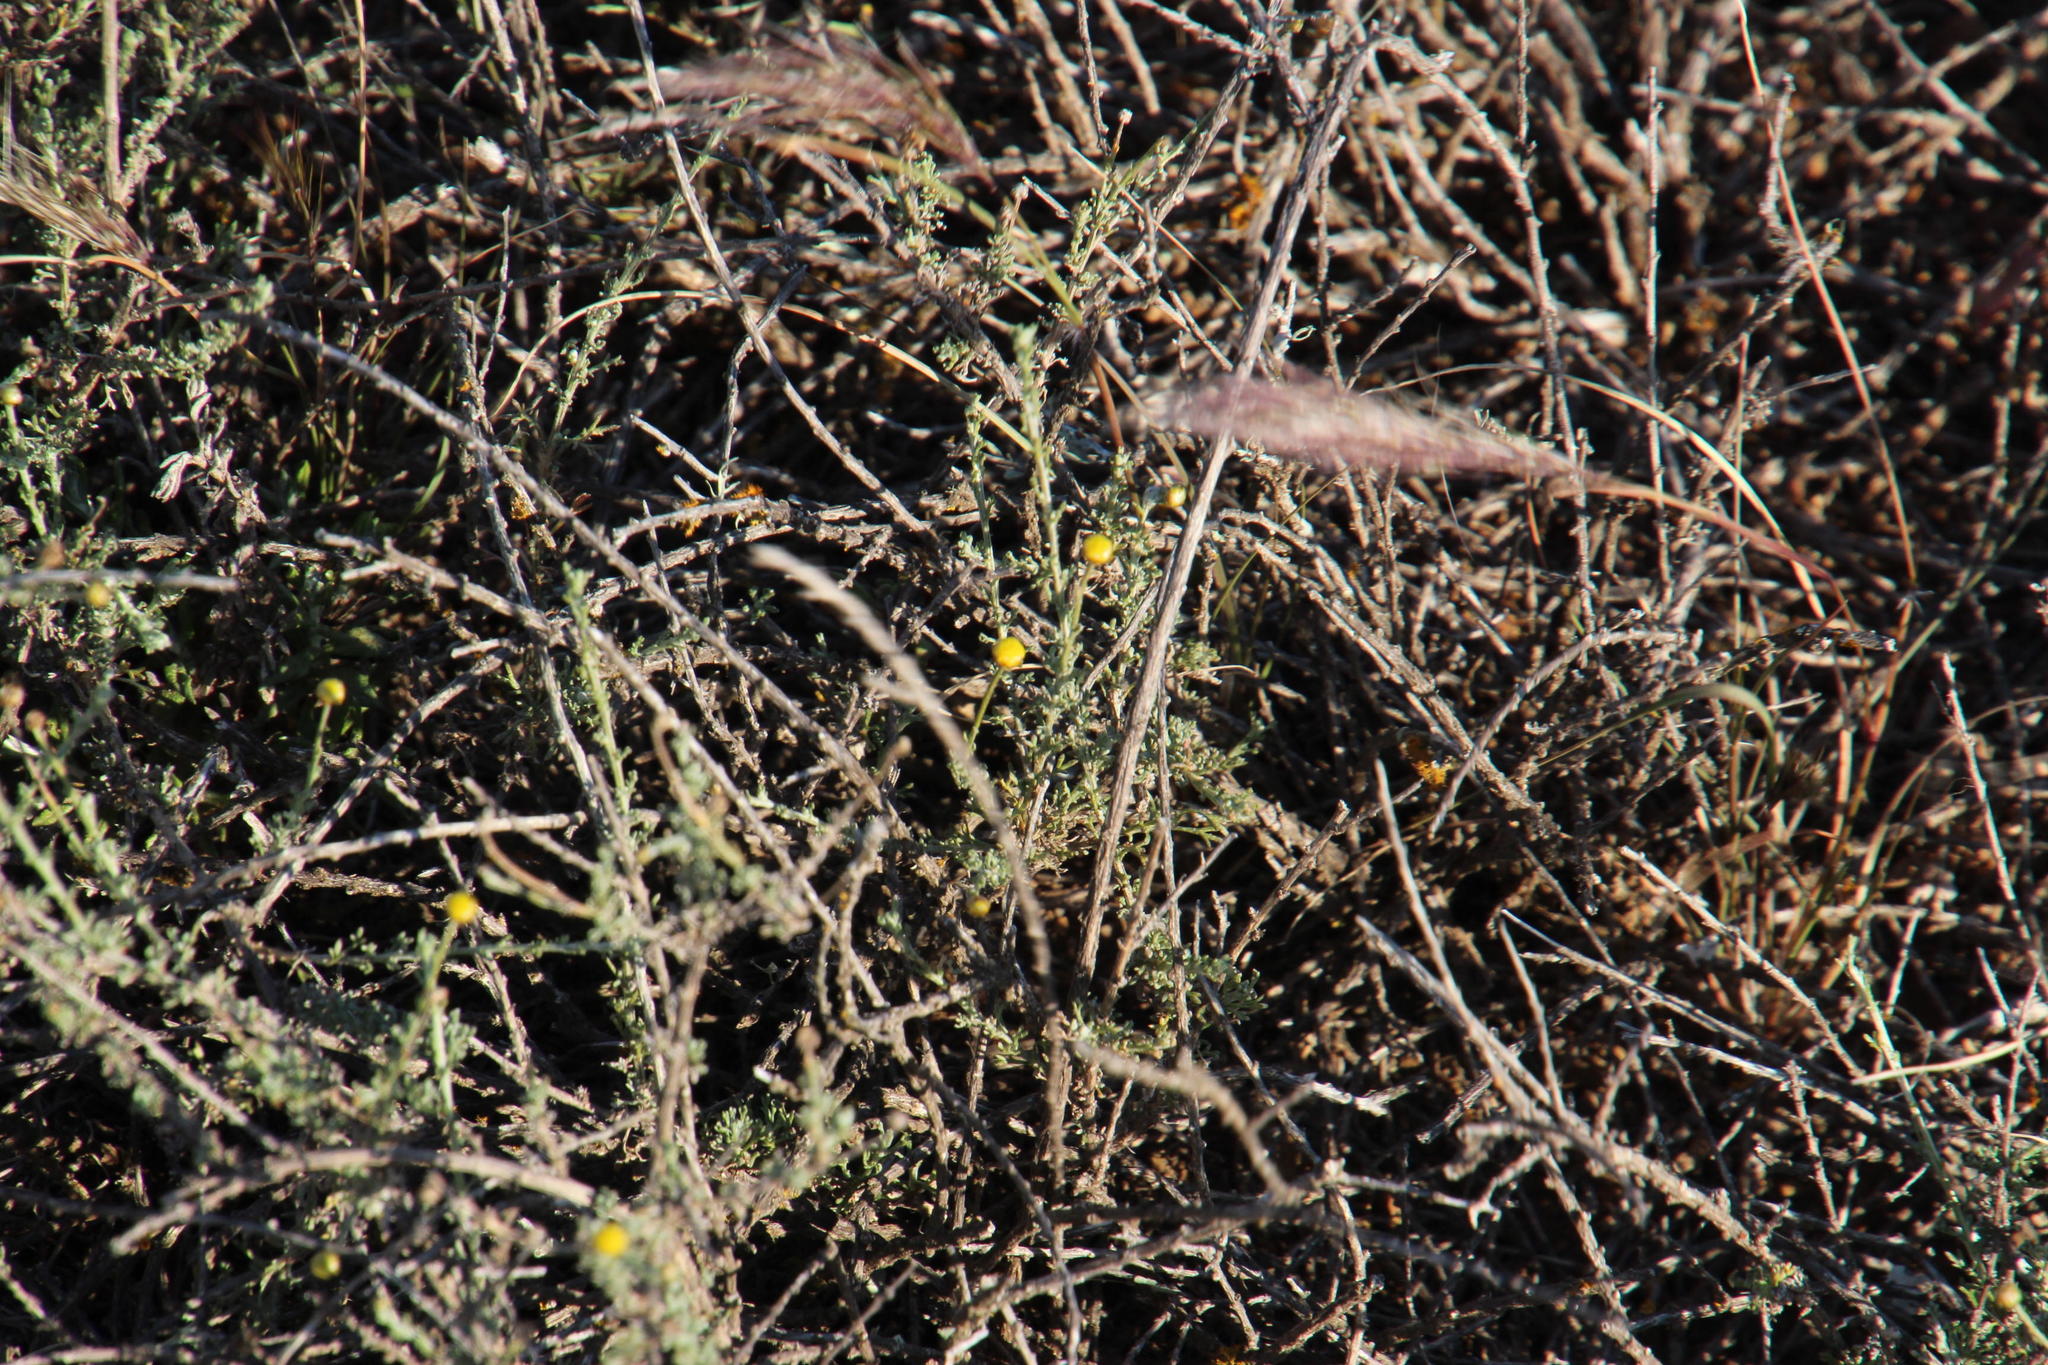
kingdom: Plantae
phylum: Tracheophyta
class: Magnoliopsida
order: Asterales
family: Asteraceae
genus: Pentzia
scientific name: Pentzia incana
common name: African sheepbush
